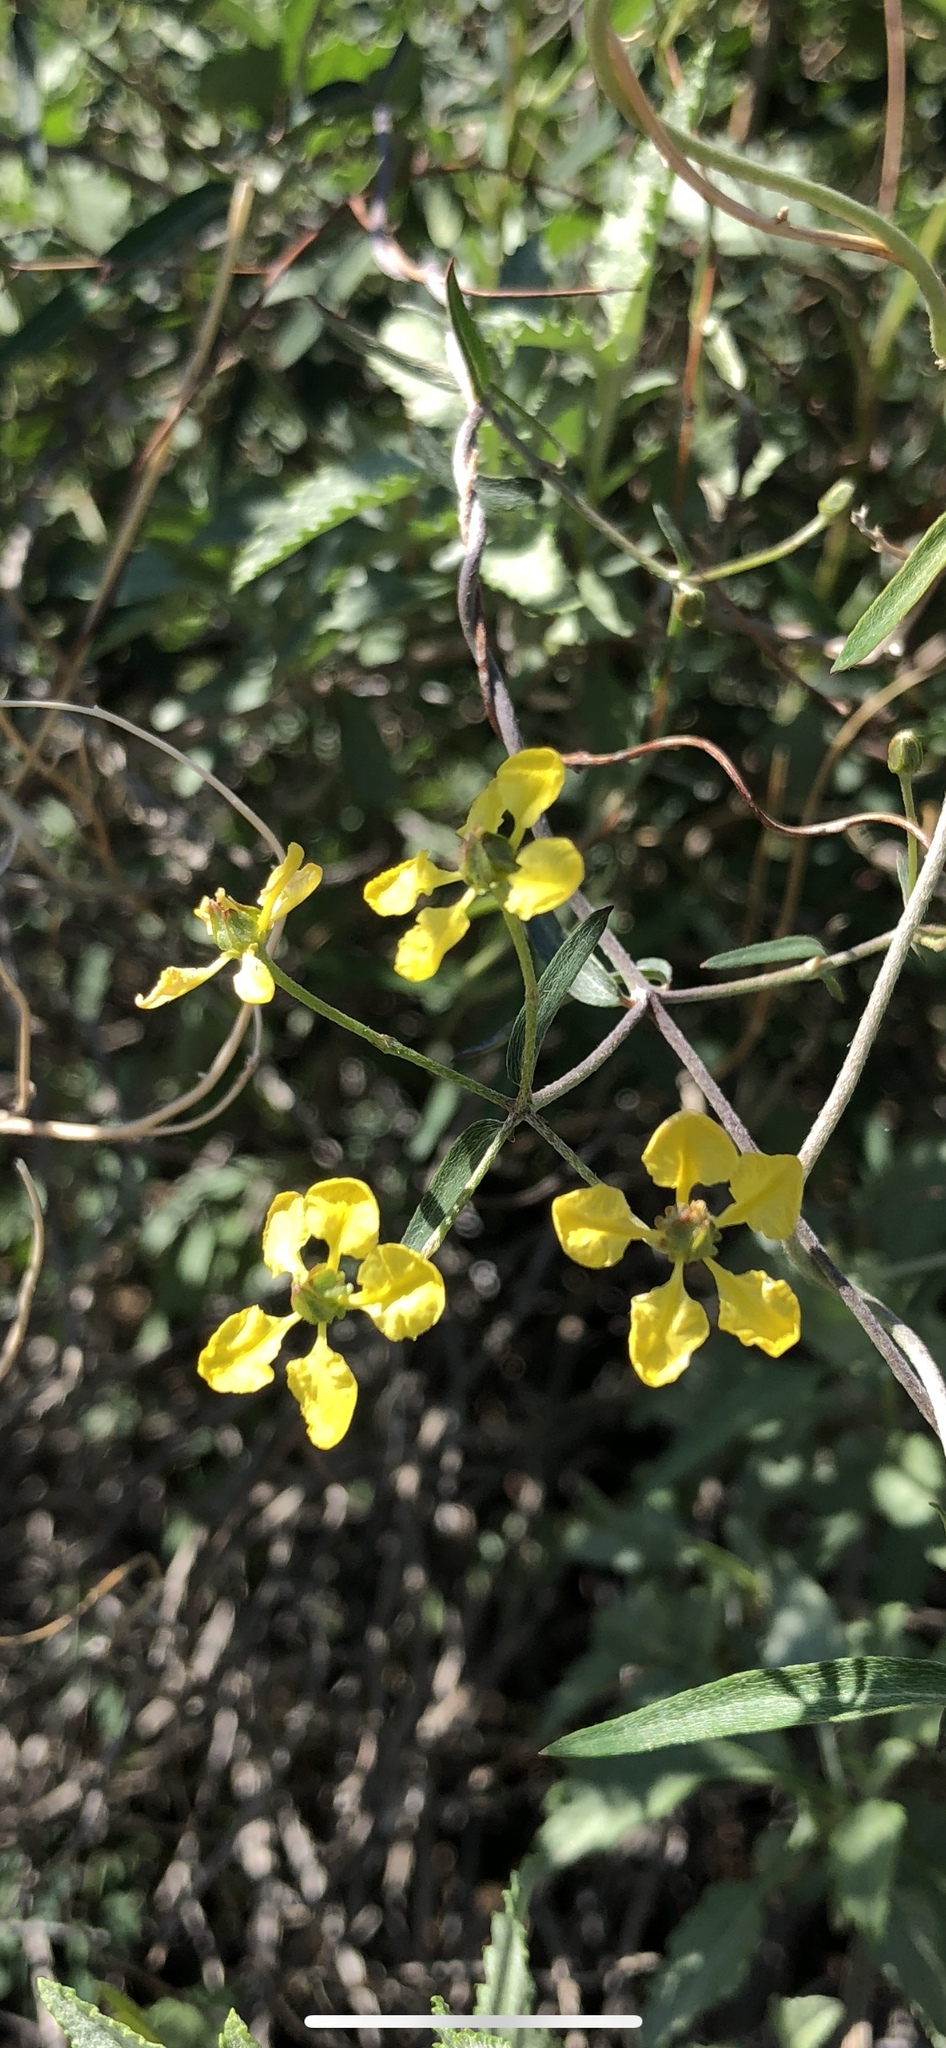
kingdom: Plantae
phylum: Tracheophyta
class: Magnoliopsida
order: Malpighiales
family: Malpighiaceae
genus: Cottsia
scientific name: Cottsia gracilis
